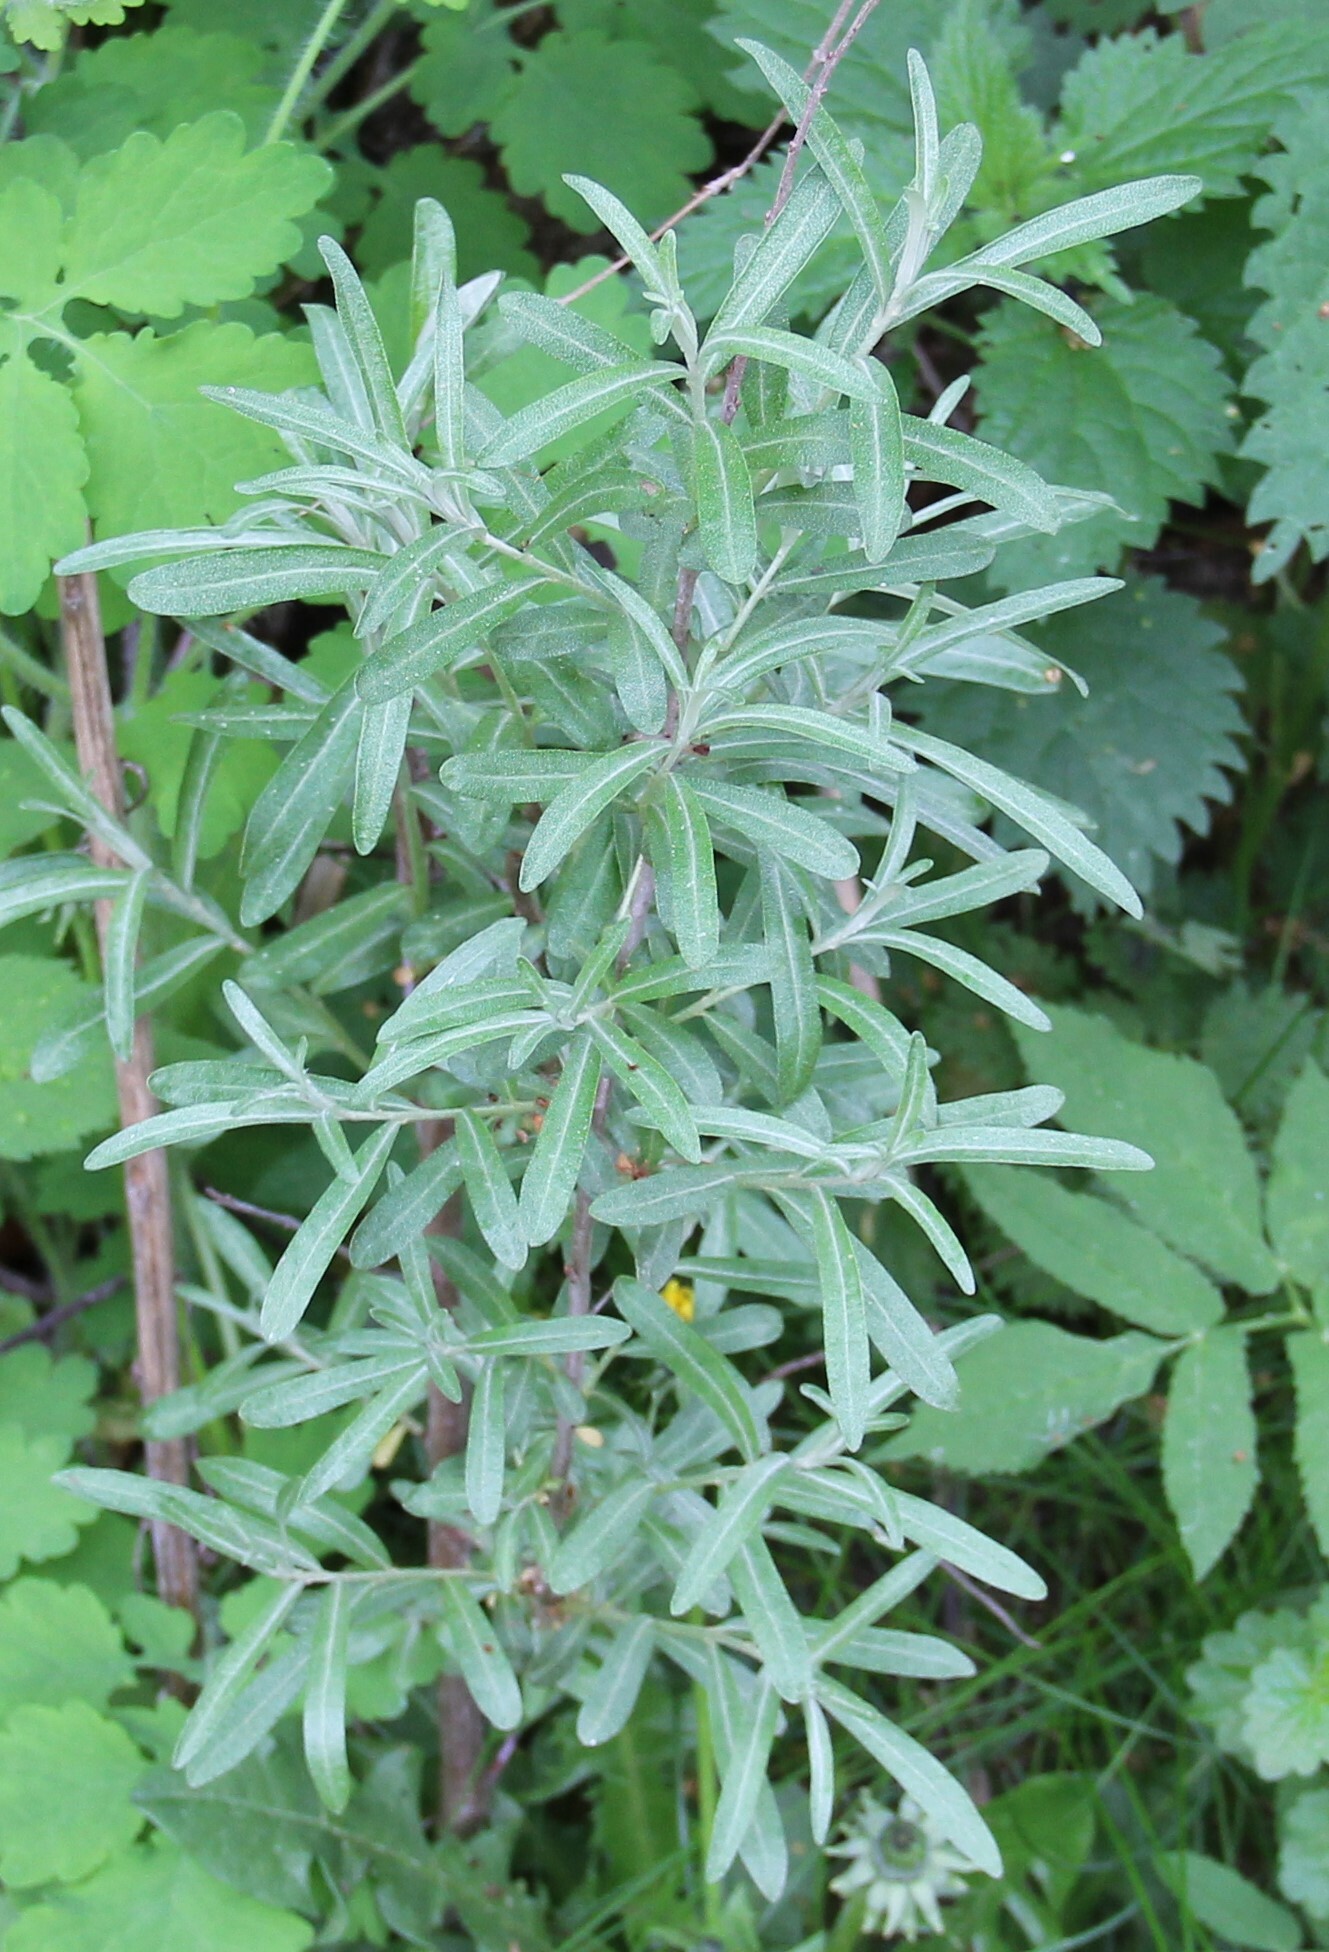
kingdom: Plantae
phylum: Tracheophyta
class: Magnoliopsida
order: Rosales
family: Elaeagnaceae
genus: Hippophae
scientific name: Hippophae rhamnoides
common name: Sea-buckthorn
